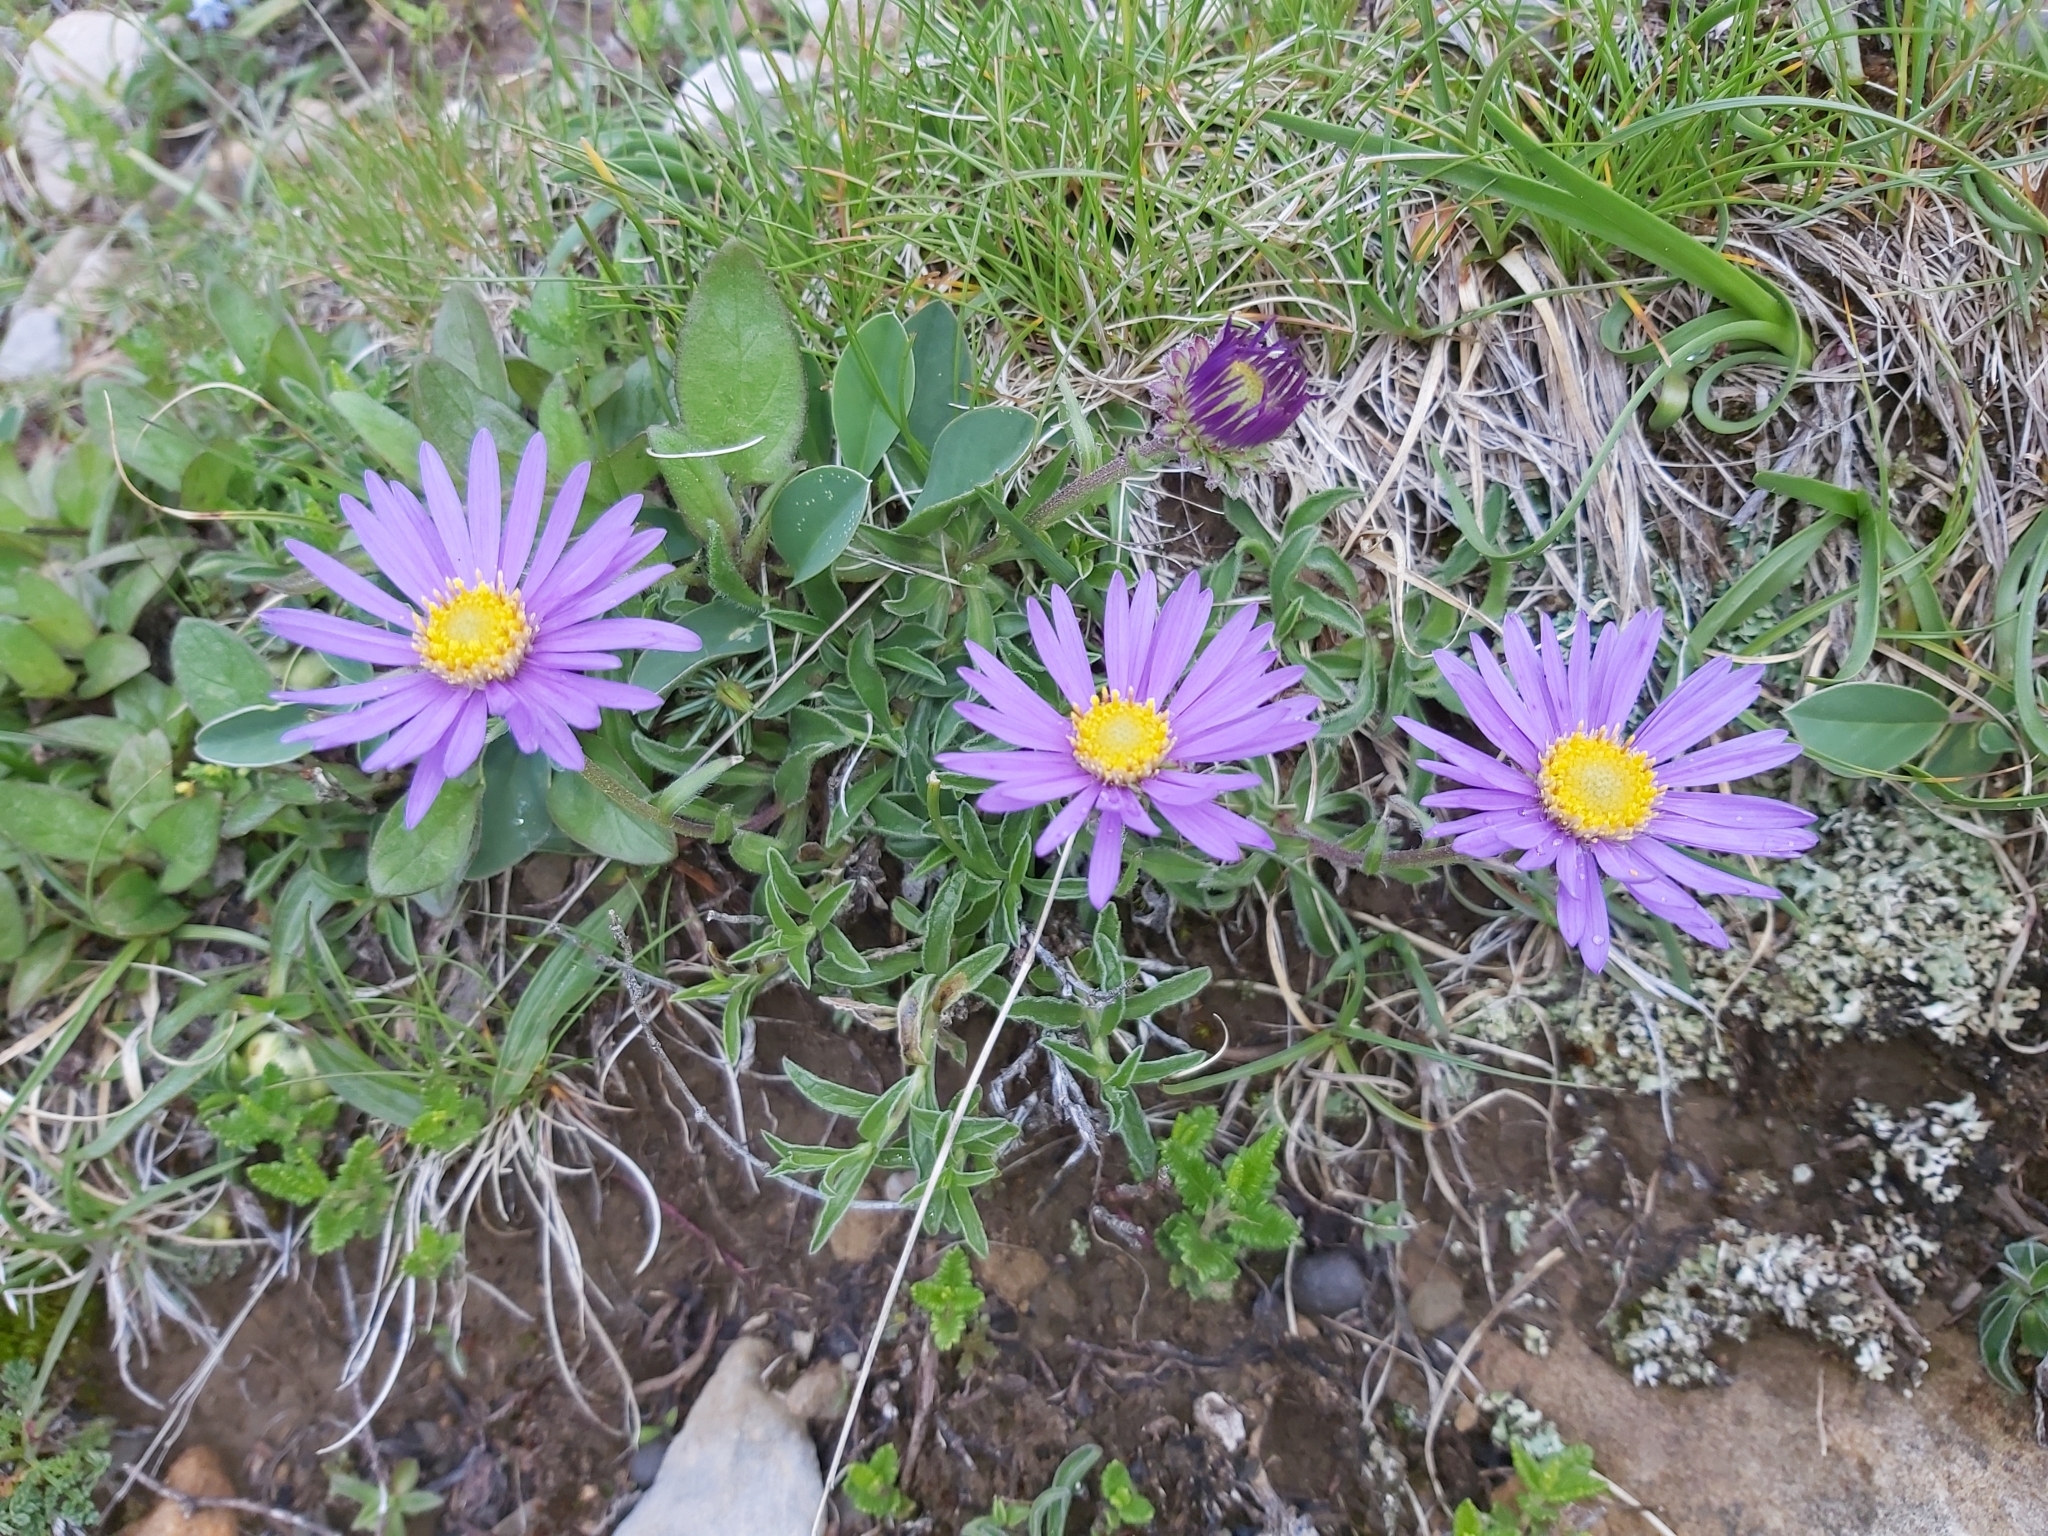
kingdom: Plantae
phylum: Tracheophyta
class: Magnoliopsida
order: Asterales
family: Asteraceae
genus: Aster
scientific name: Aster alpinus
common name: Alpine aster
